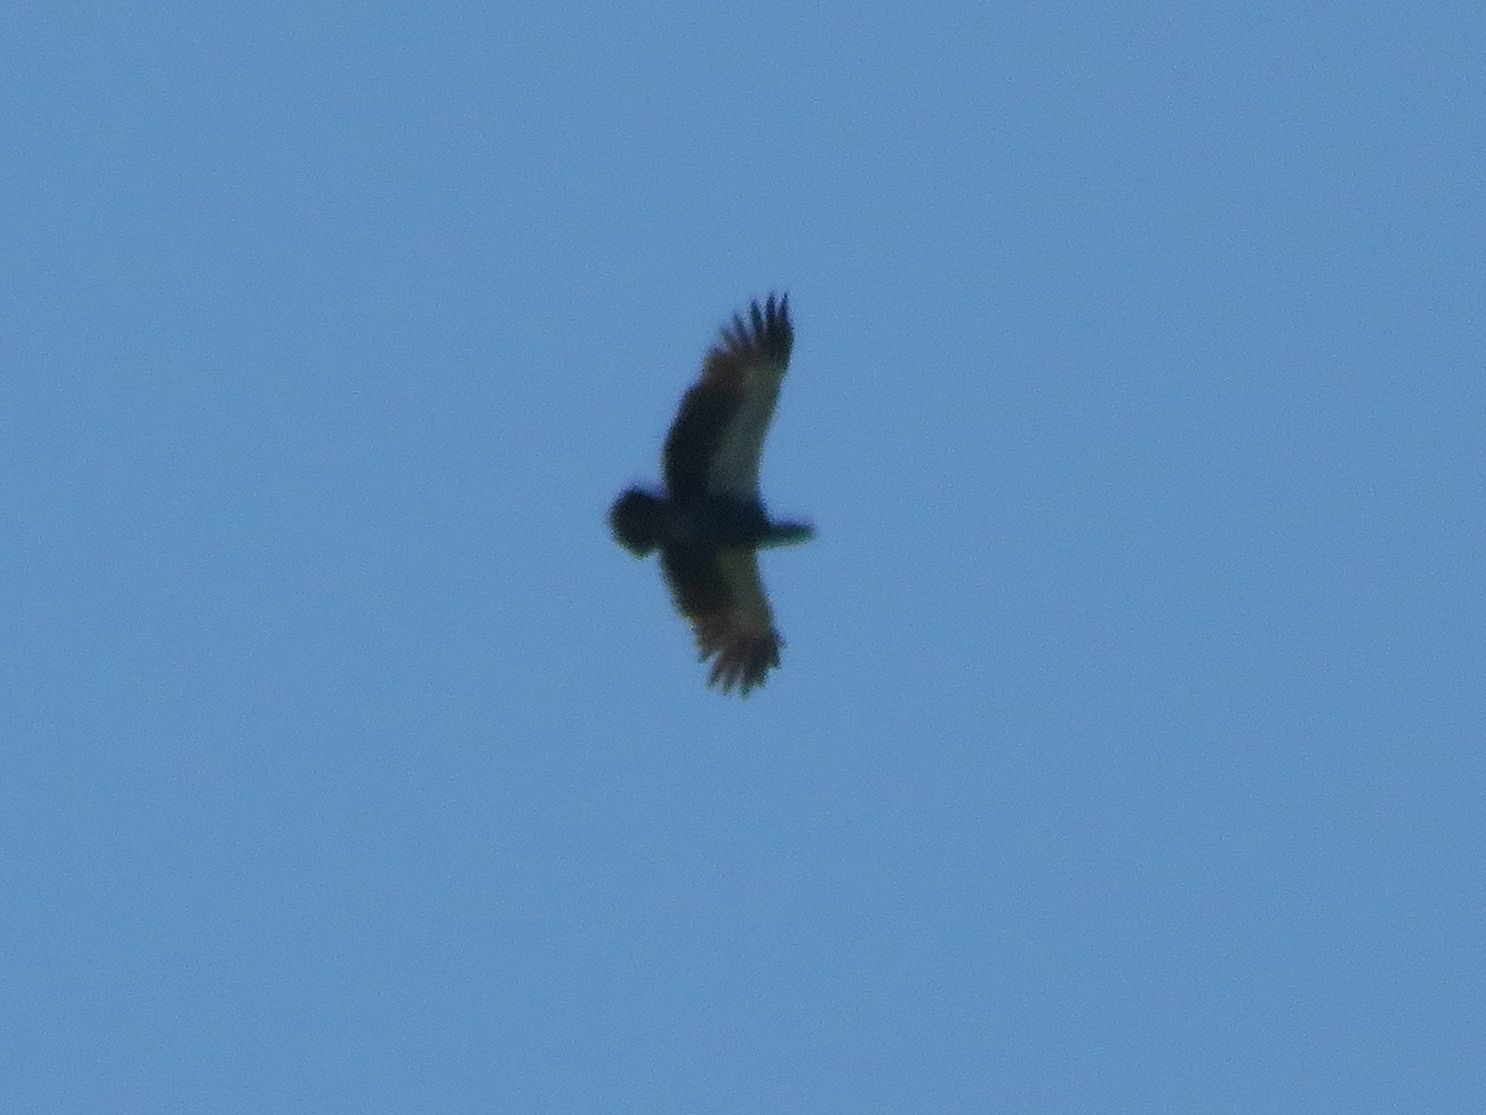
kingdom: Animalia
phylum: Chordata
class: Aves
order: Anseriformes
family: Anhimidae
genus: Chauna
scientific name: Chauna torquata
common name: Southern screamer
